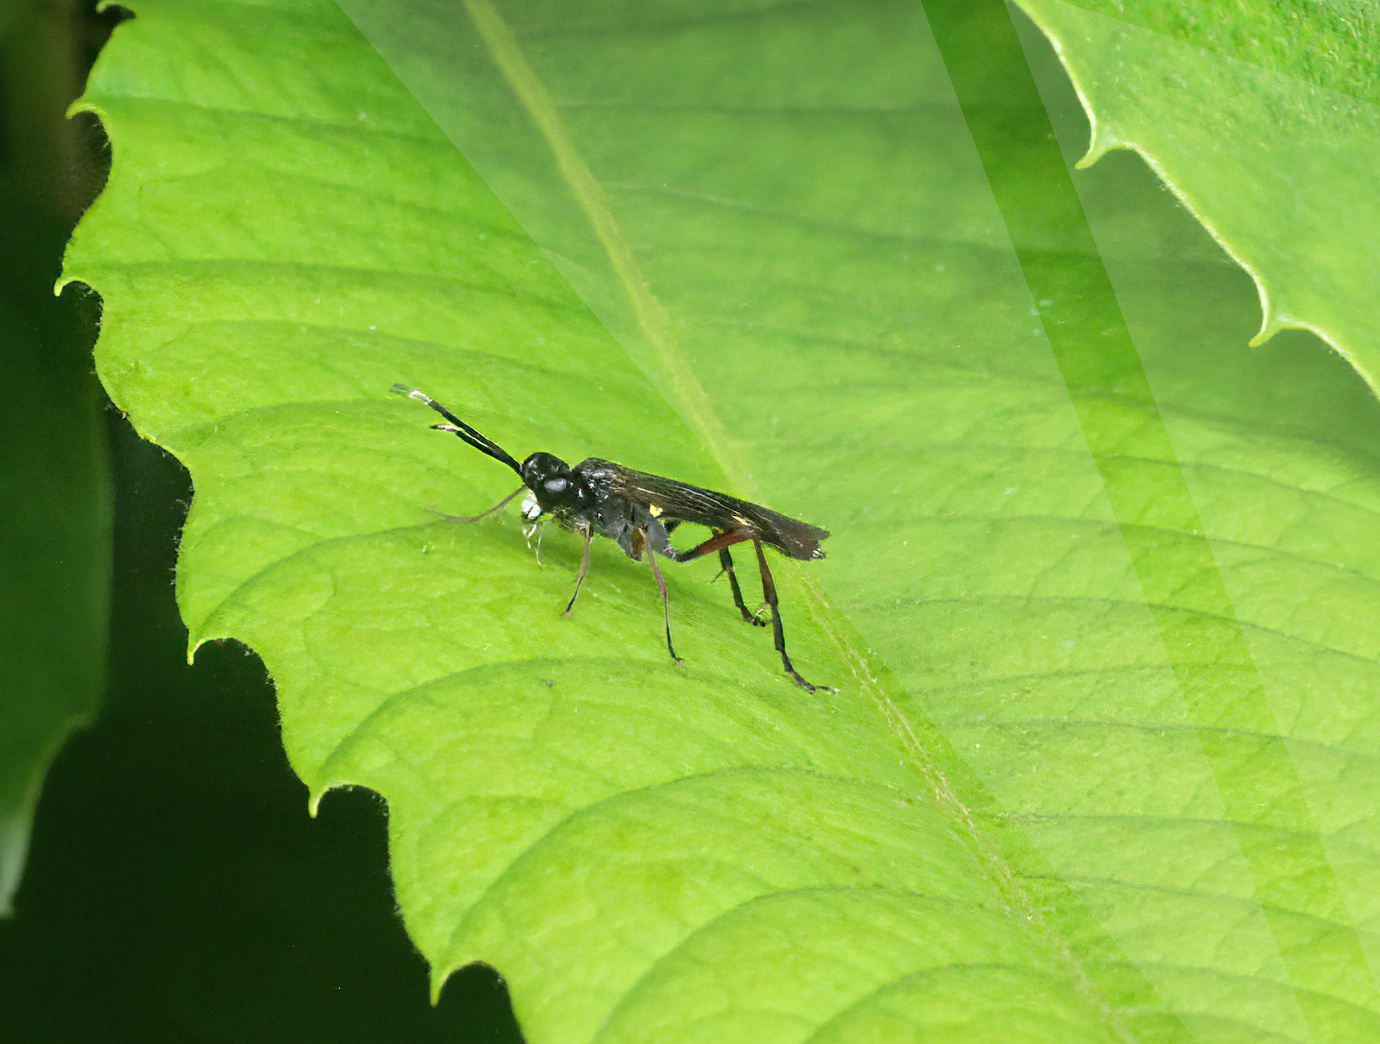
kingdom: Animalia
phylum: Arthropoda
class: Insecta
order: Hymenoptera
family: Tenthredinidae
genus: Tenthredo
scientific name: Tenthredo livida
